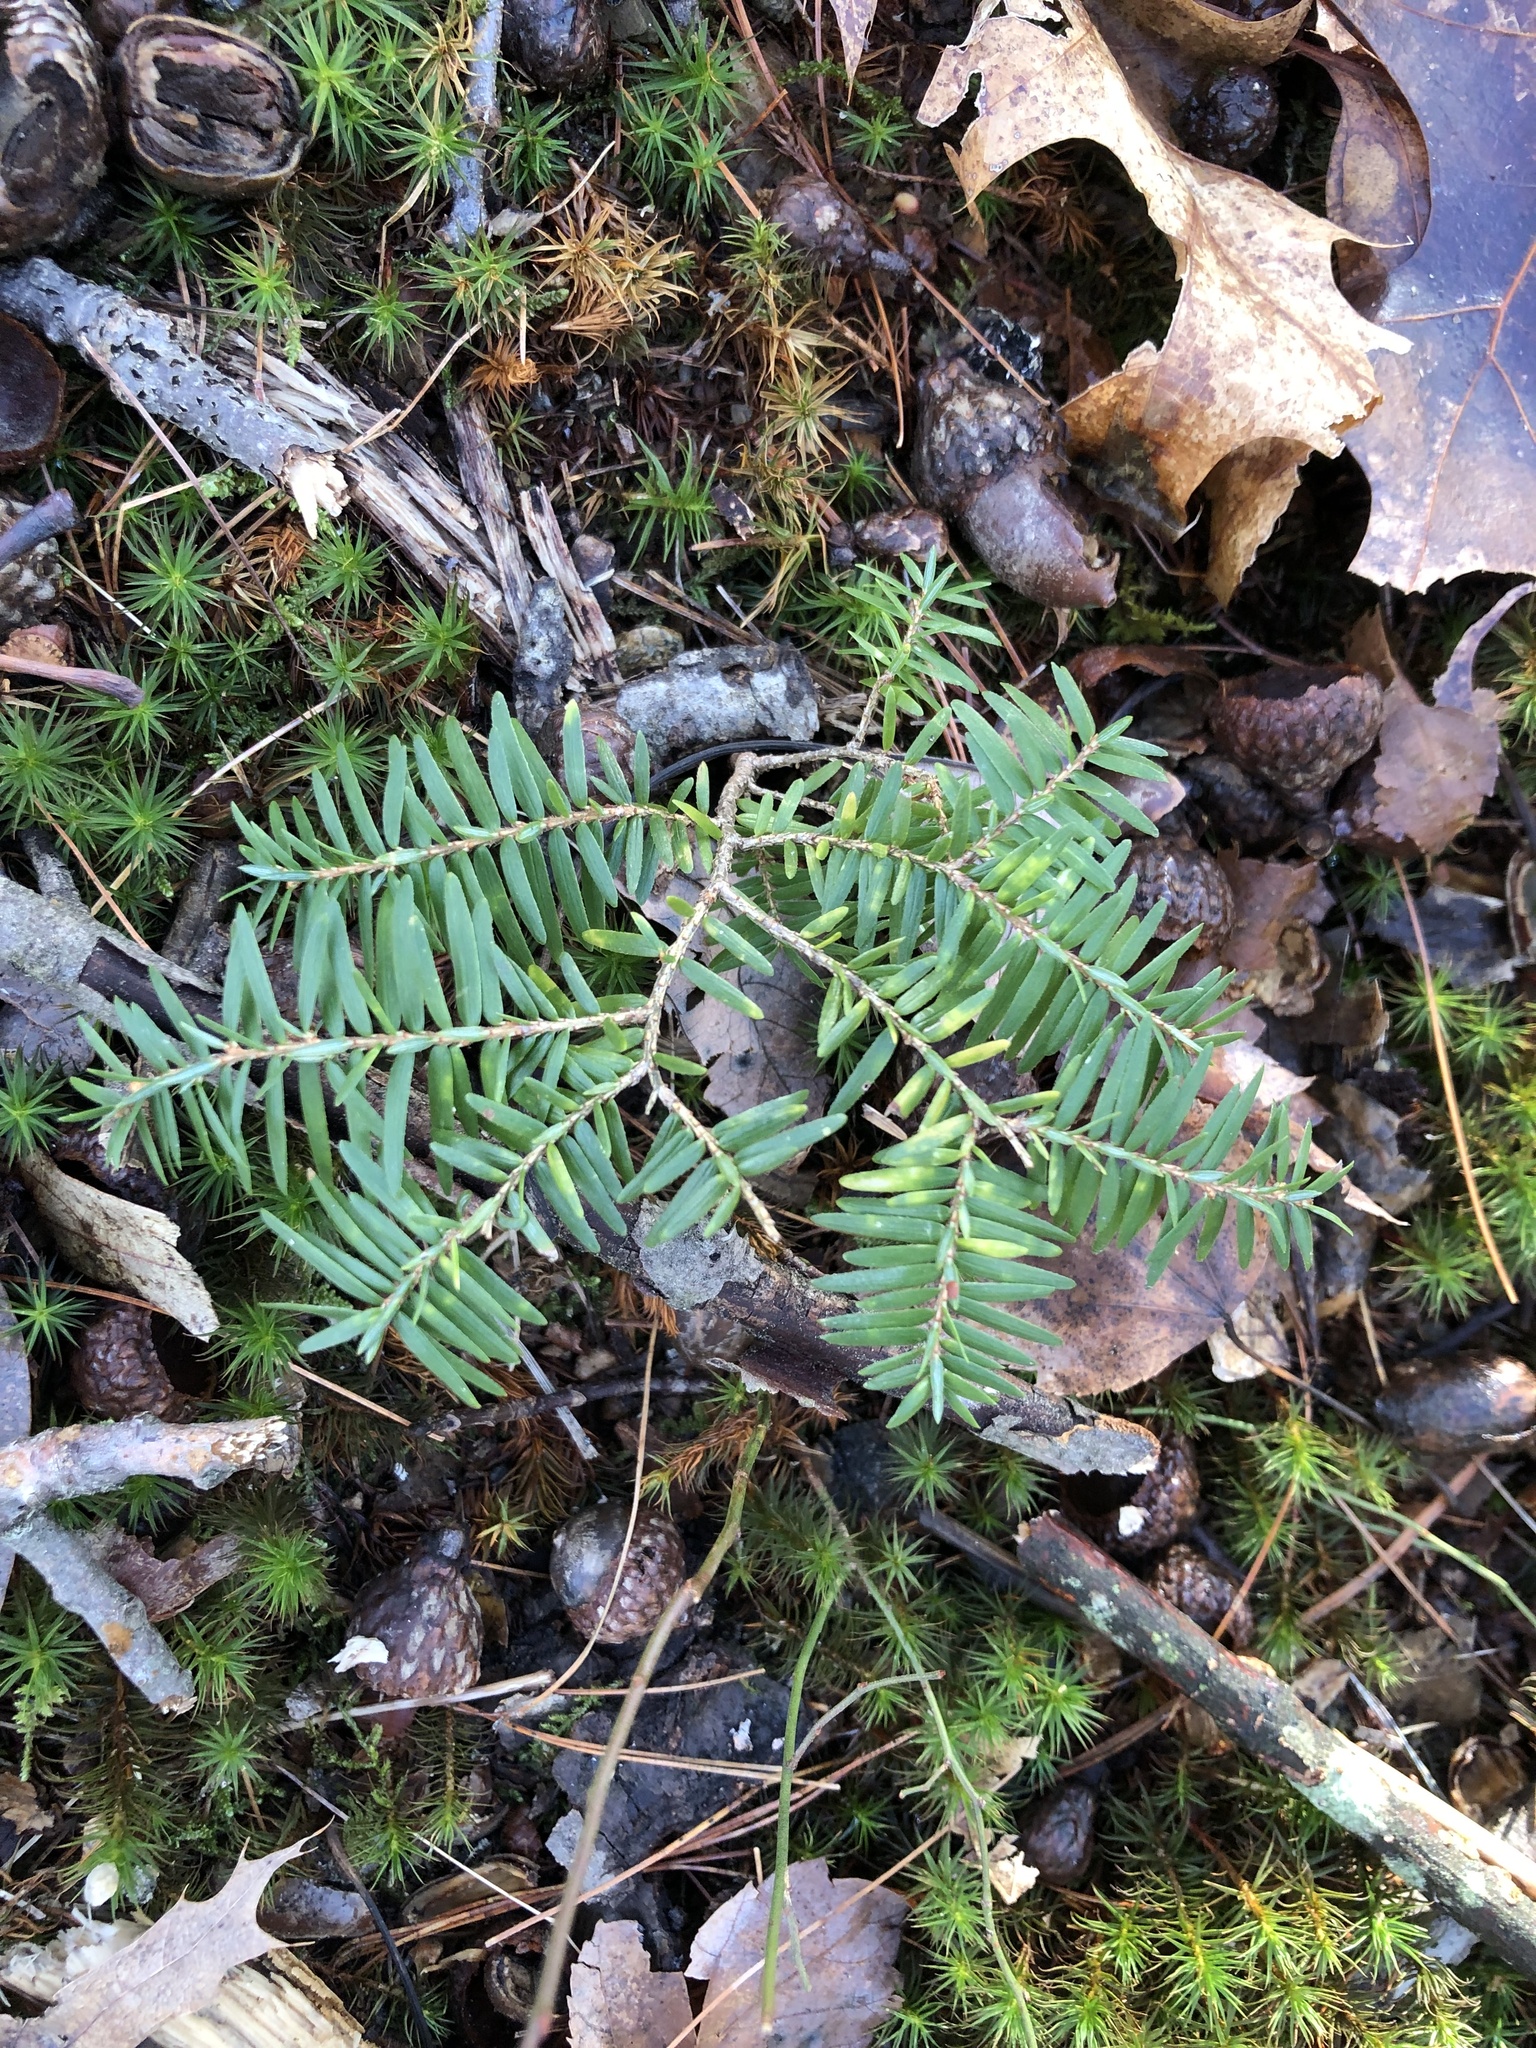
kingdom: Plantae
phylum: Tracheophyta
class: Pinopsida
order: Pinales
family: Pinaceae
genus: Tsuga
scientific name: Tsuga canadensis
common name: Eastern hemlock
